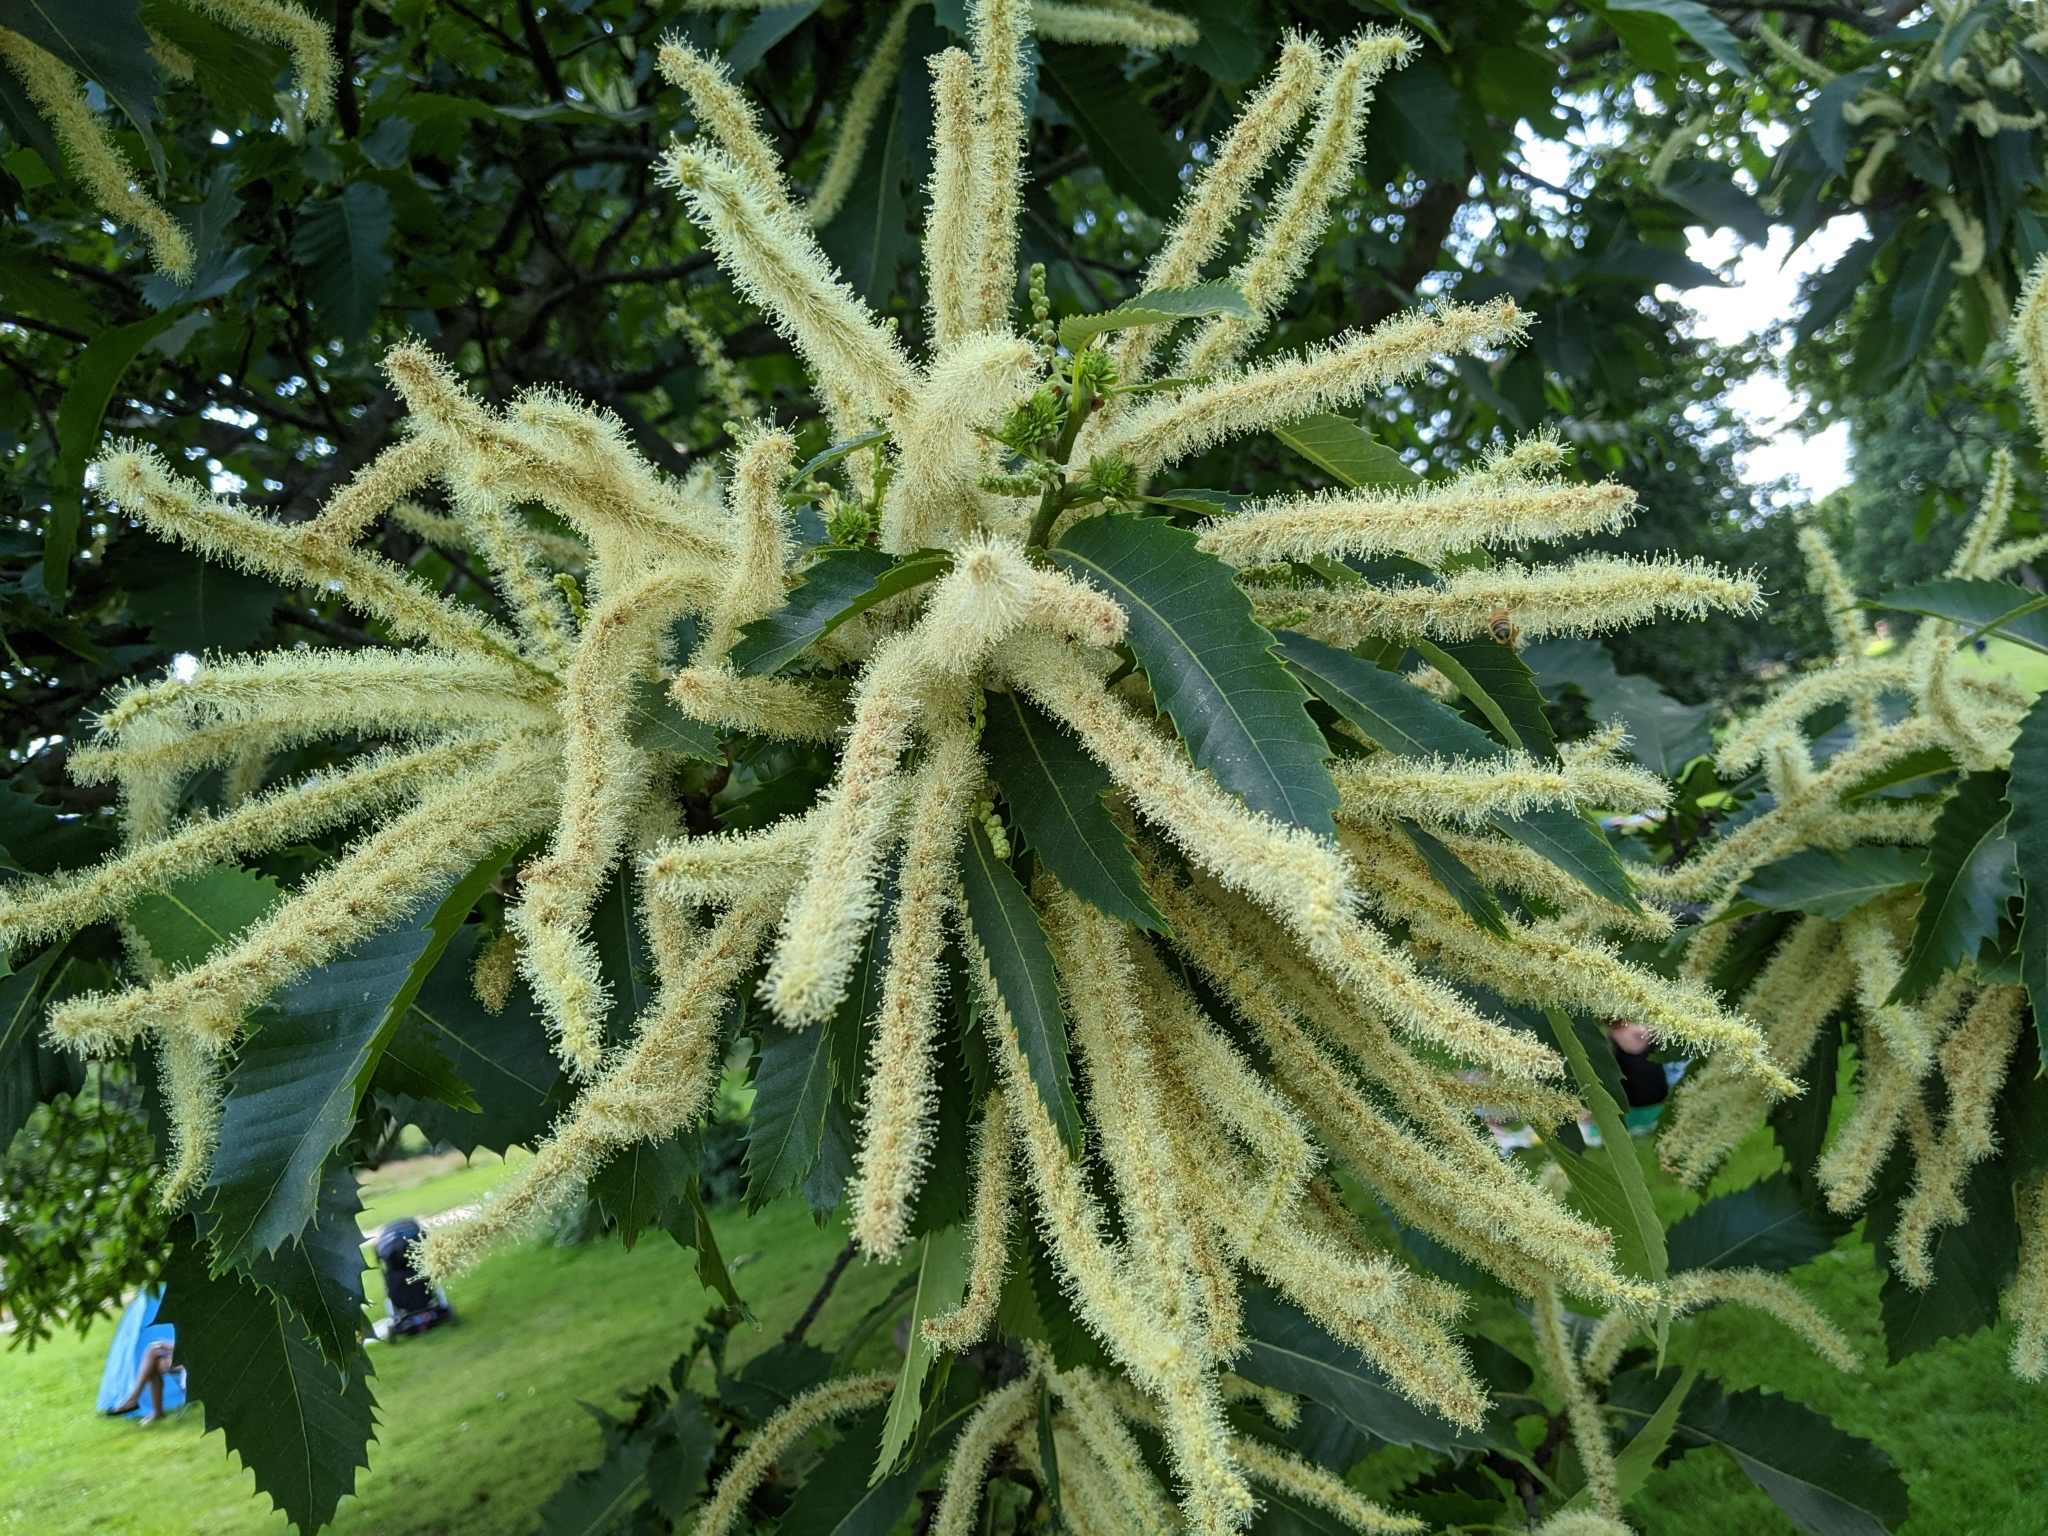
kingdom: Plantae
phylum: Tracheophyta
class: Magnoliopsida
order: Fagales
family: Fagaceae
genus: Castanea
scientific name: Castanea sativa
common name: Sweet chestnut
